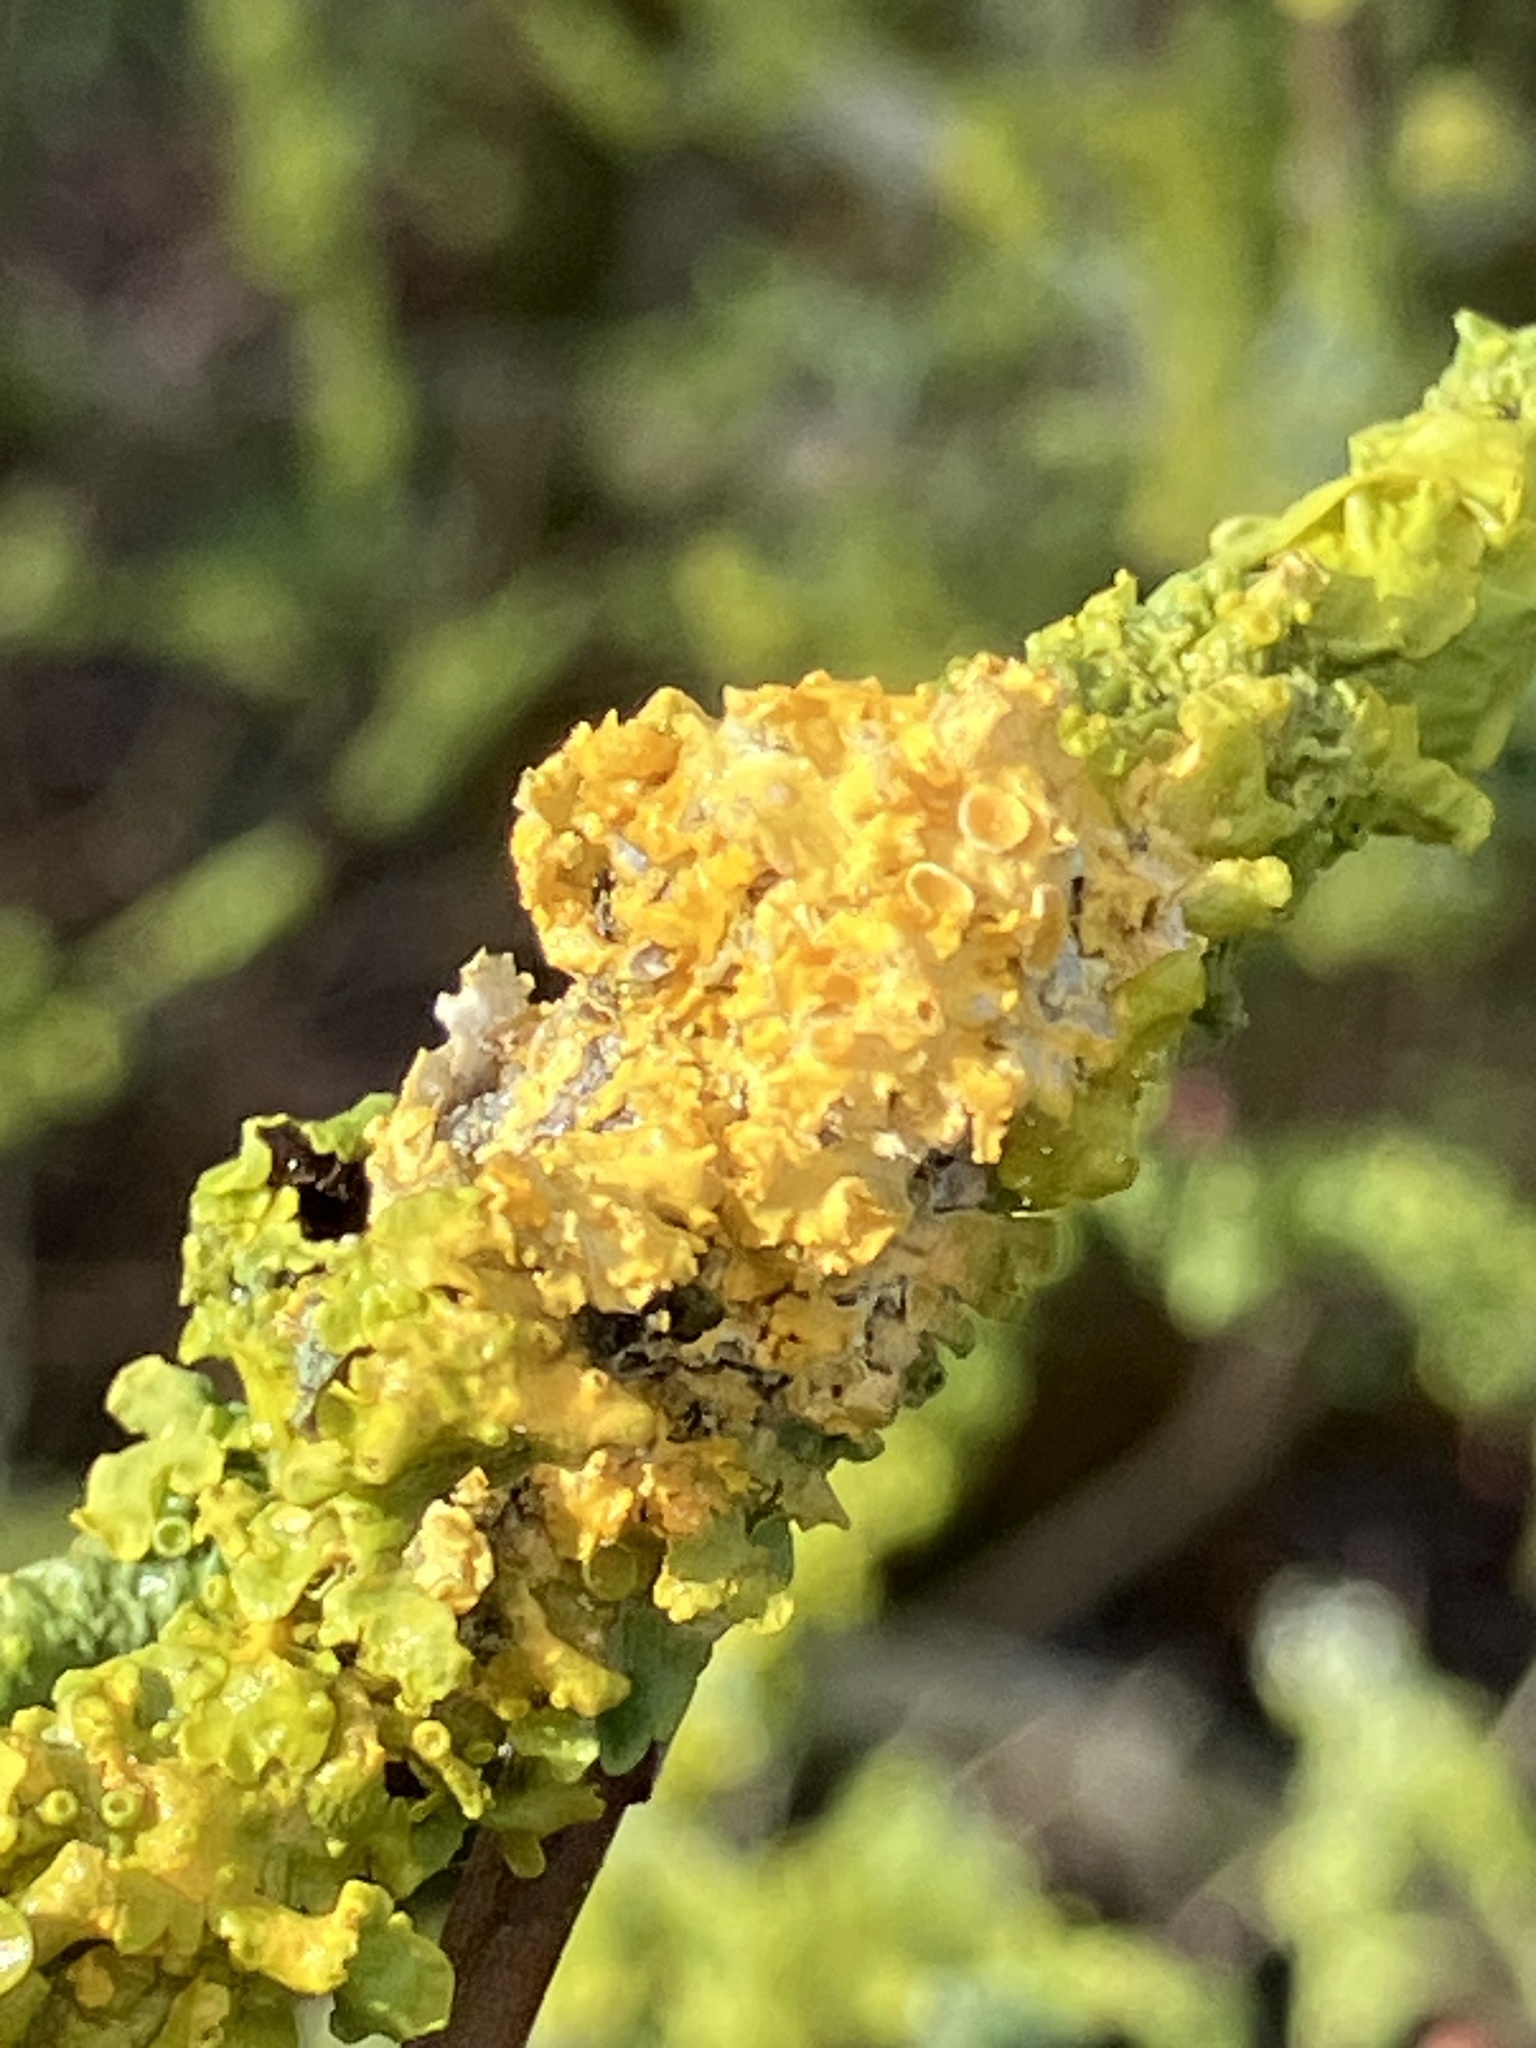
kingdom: Fungi
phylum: Ascomycota
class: Lecanoromycetes
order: Teloschistales
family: Teloschistaceae
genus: Xanthoria
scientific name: Xanthoria parietina
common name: Common orange lichen
